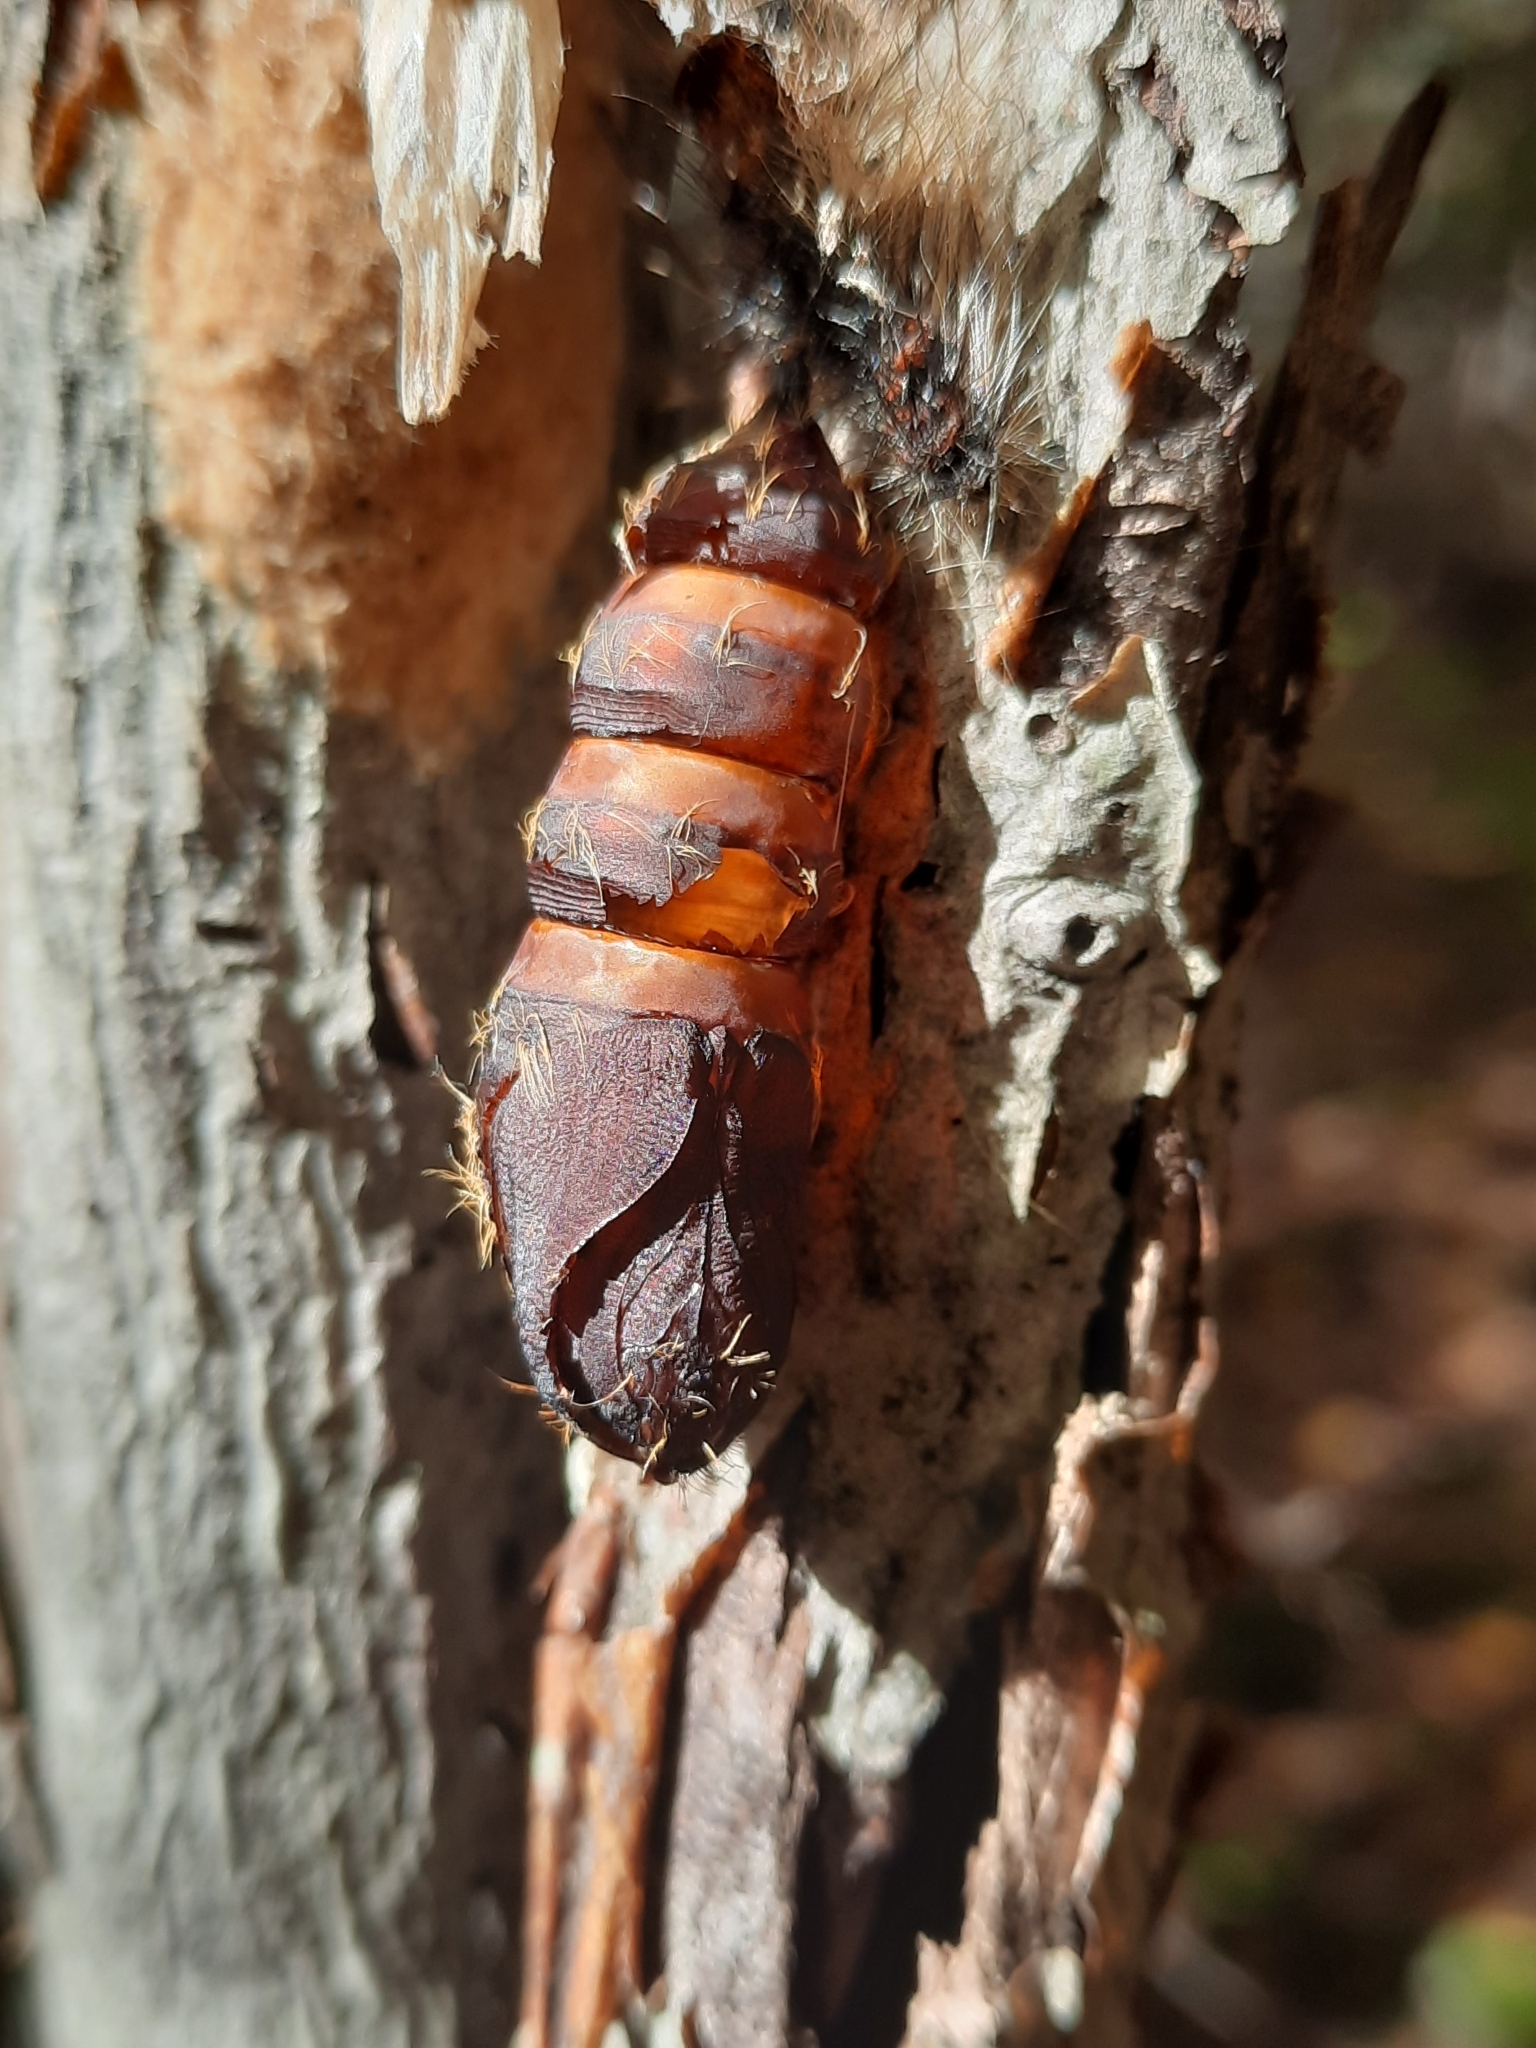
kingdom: Animalia
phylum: Arthropoda
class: Insecta
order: Lepidoptera
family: Erebidae
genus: Lymantria
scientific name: Lymantria dispar
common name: Gypsy moth
